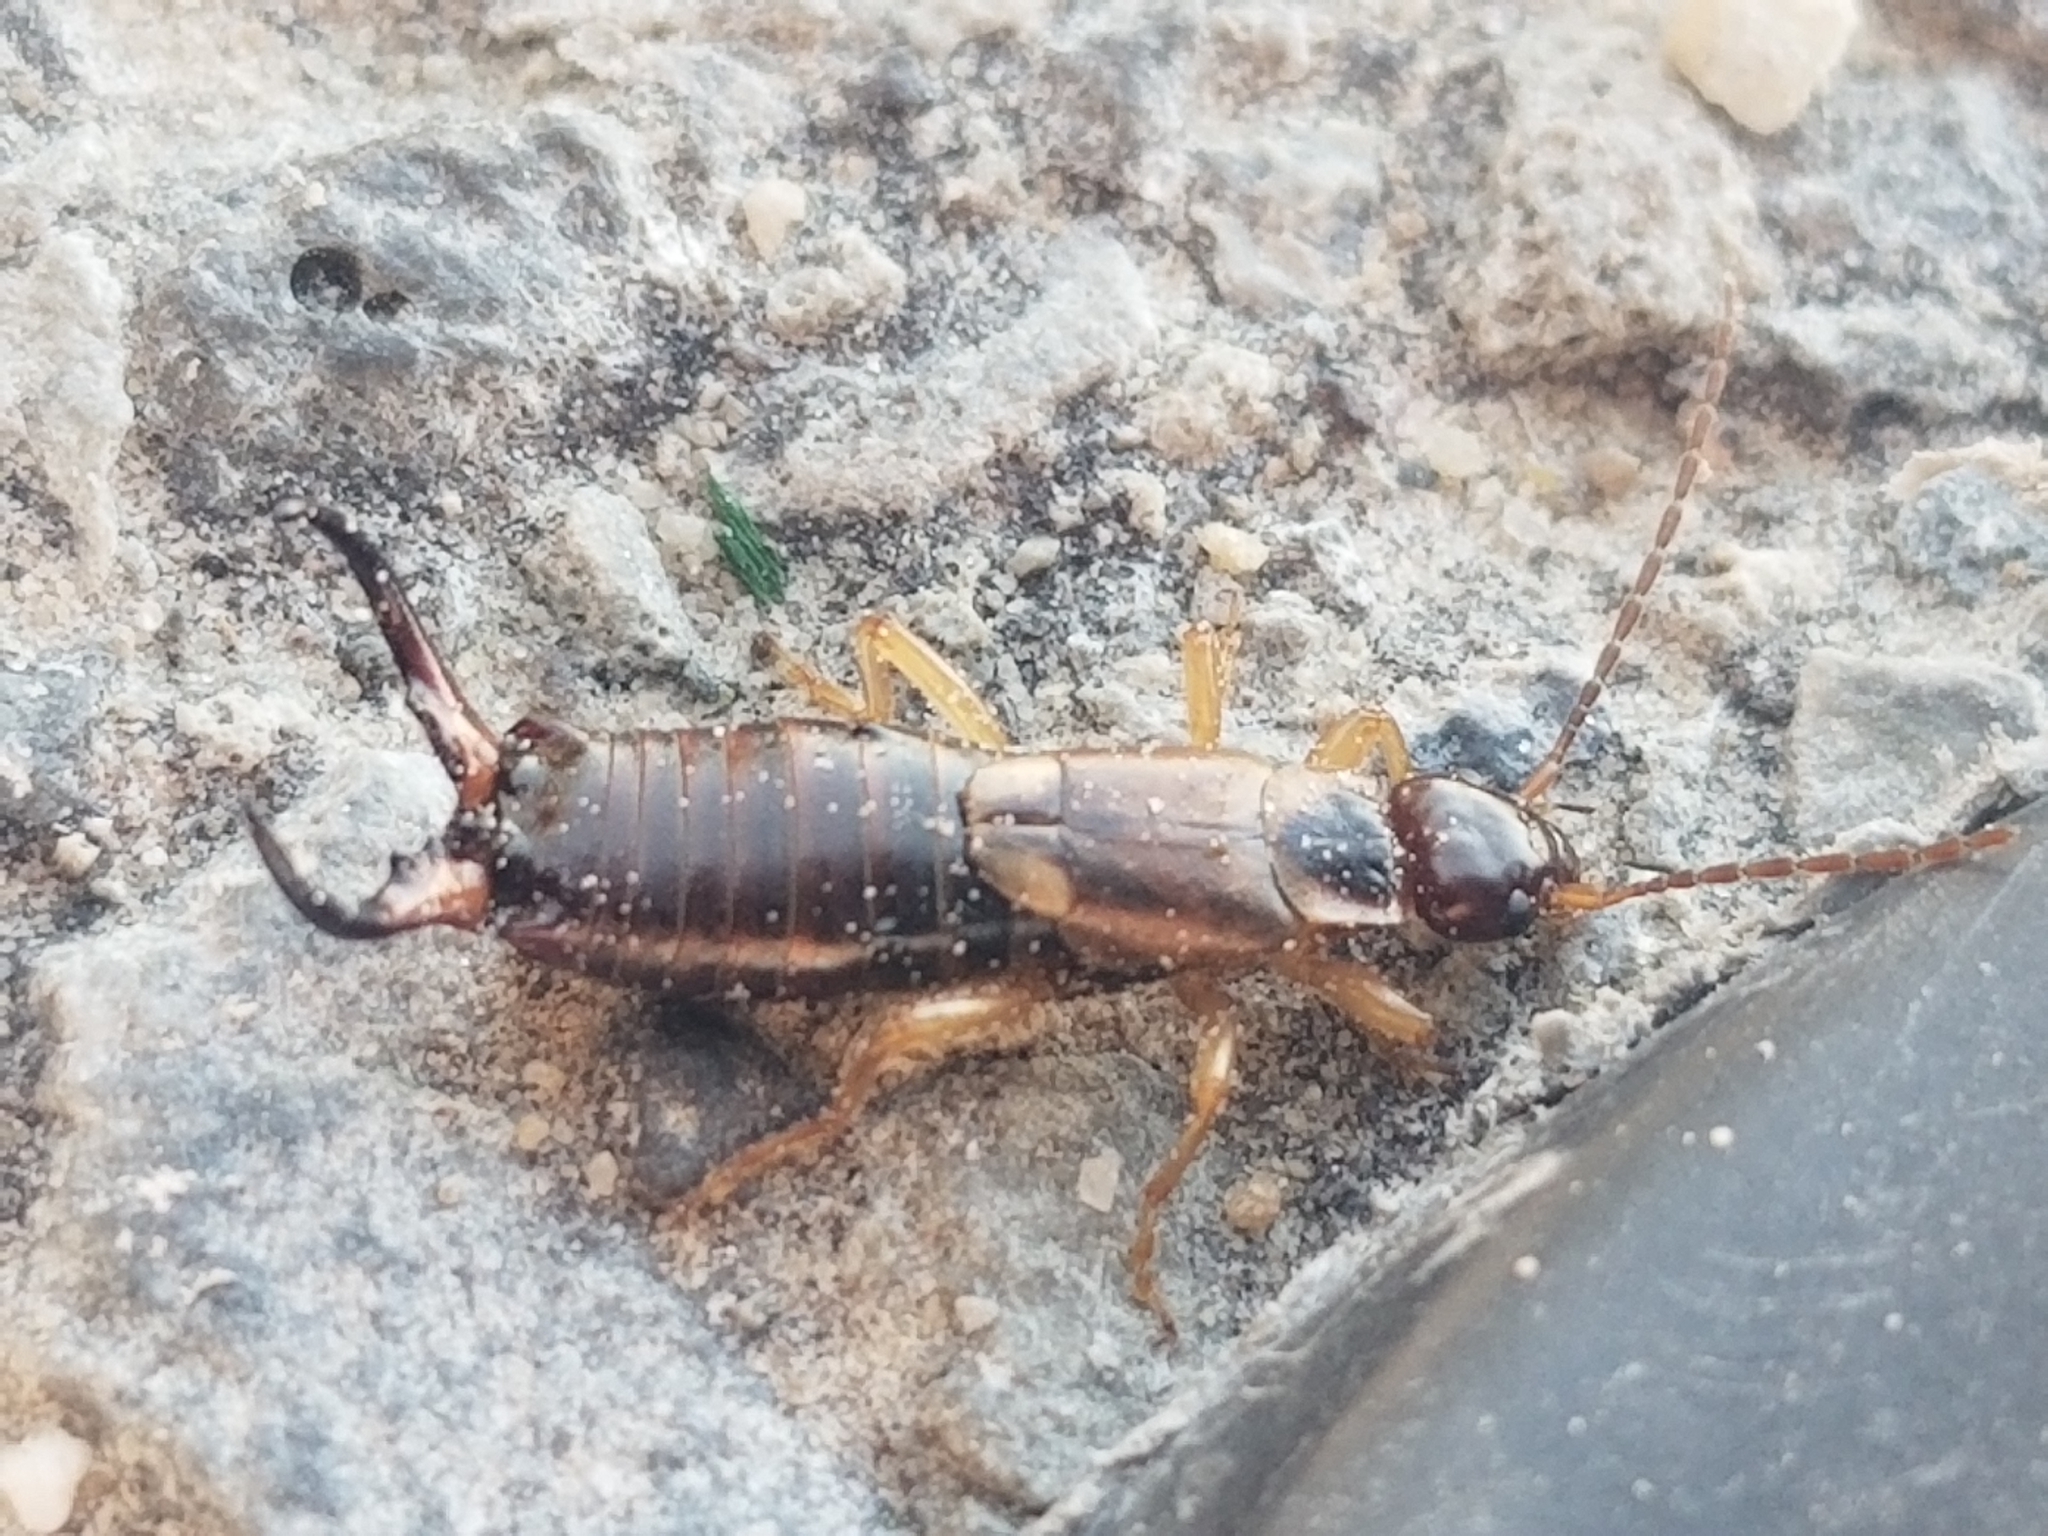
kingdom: Animalia
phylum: Arthropoda
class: Insecta
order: Dermaptera
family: Forficulidae
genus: Forficula
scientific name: Forficula
